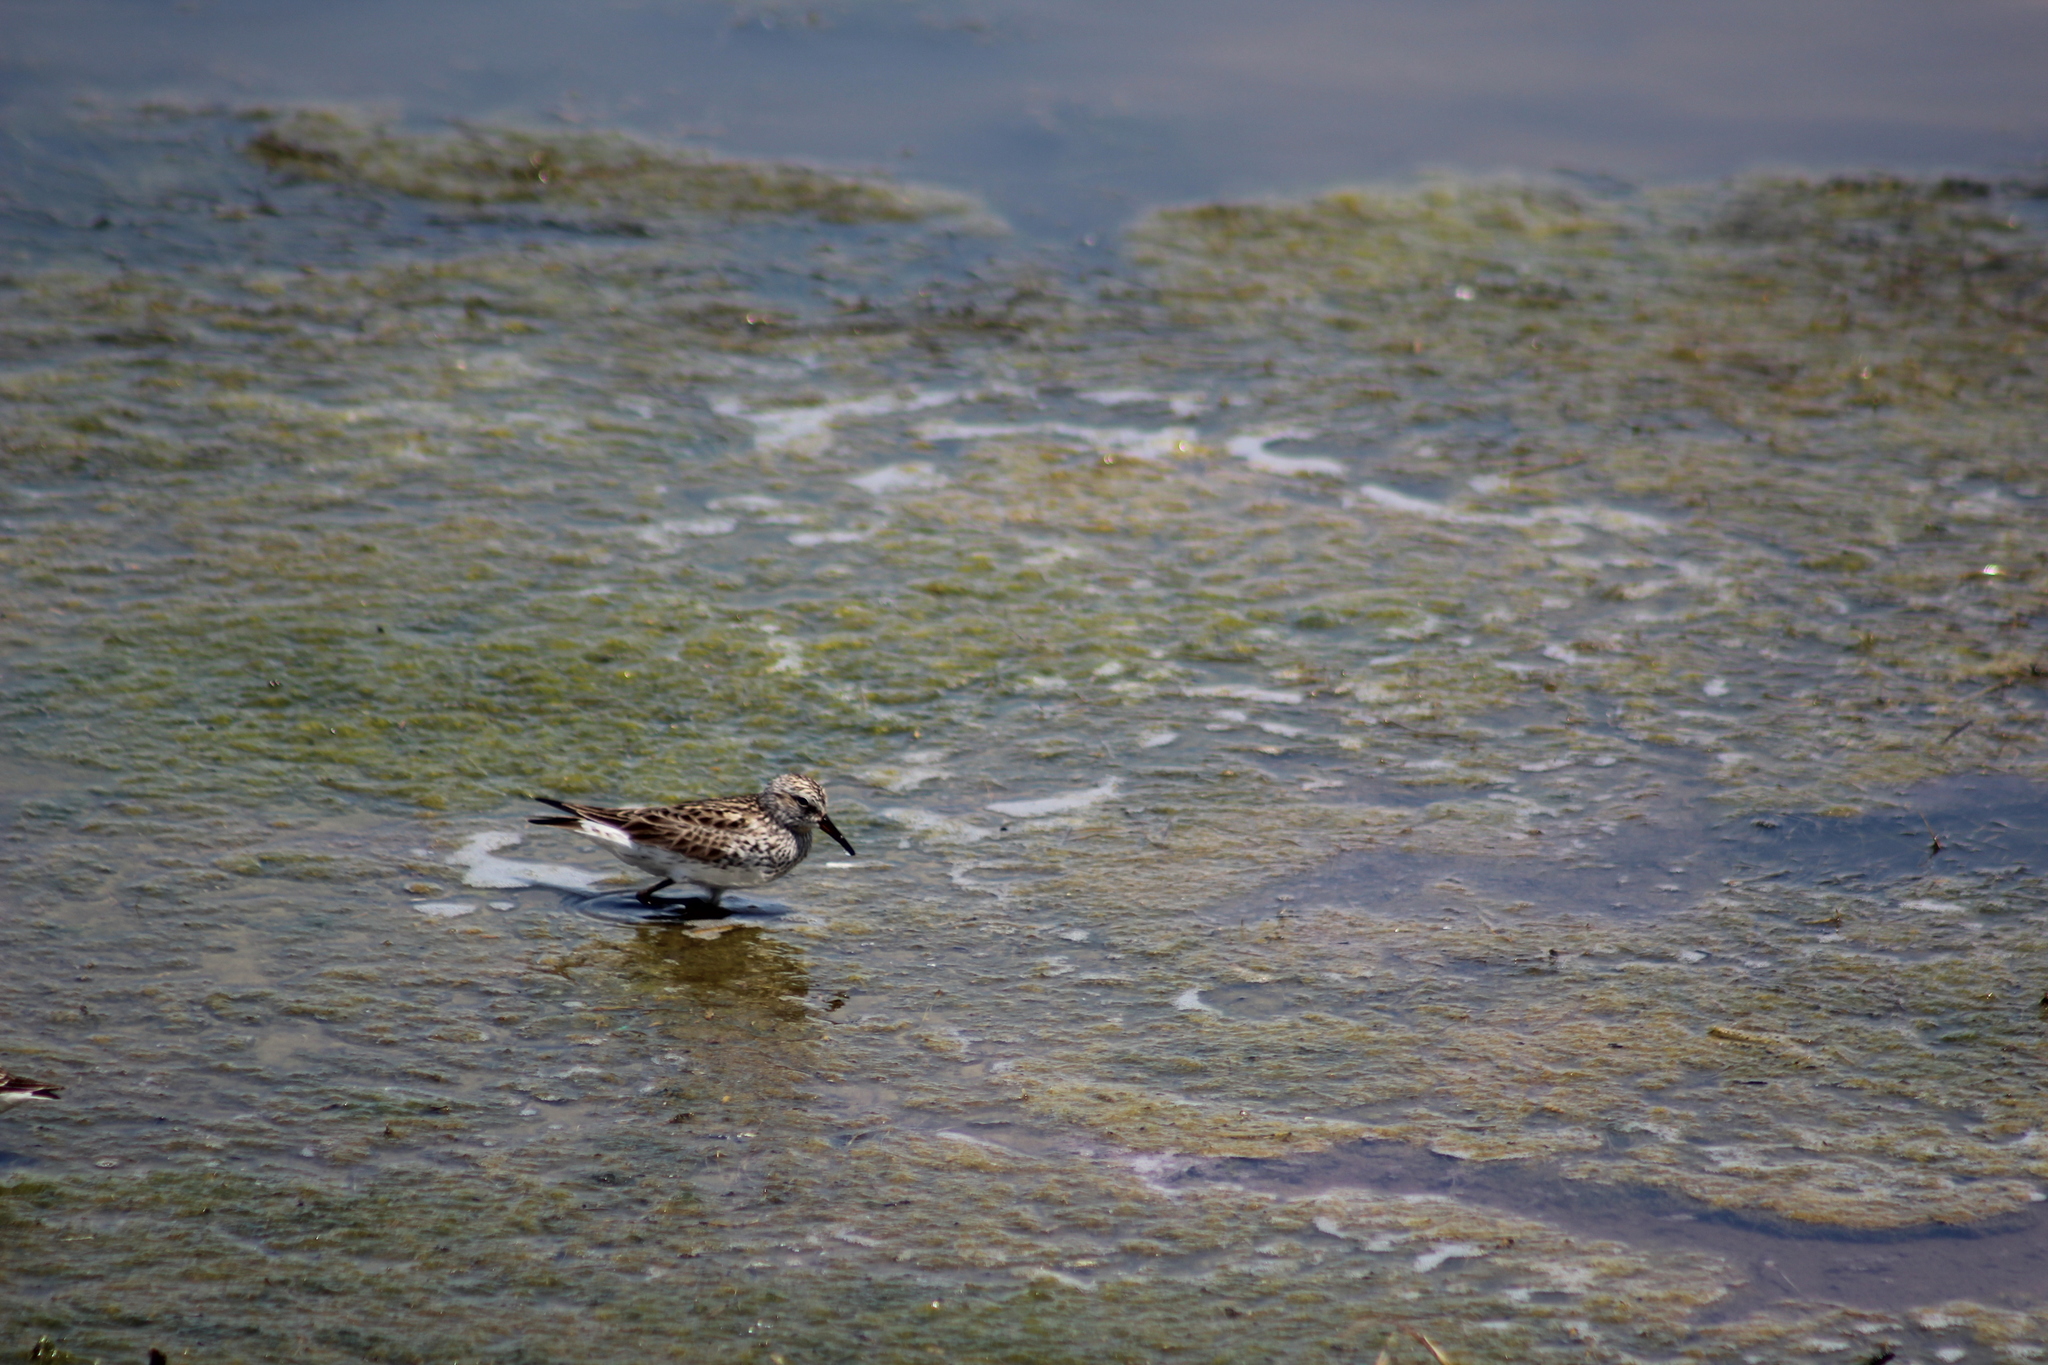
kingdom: Animalia
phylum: Chordata
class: Aves
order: Charadriiformes
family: Scolopacidae
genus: Calidris
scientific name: Calidris fuscicollis
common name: White-rumped sandpiper
